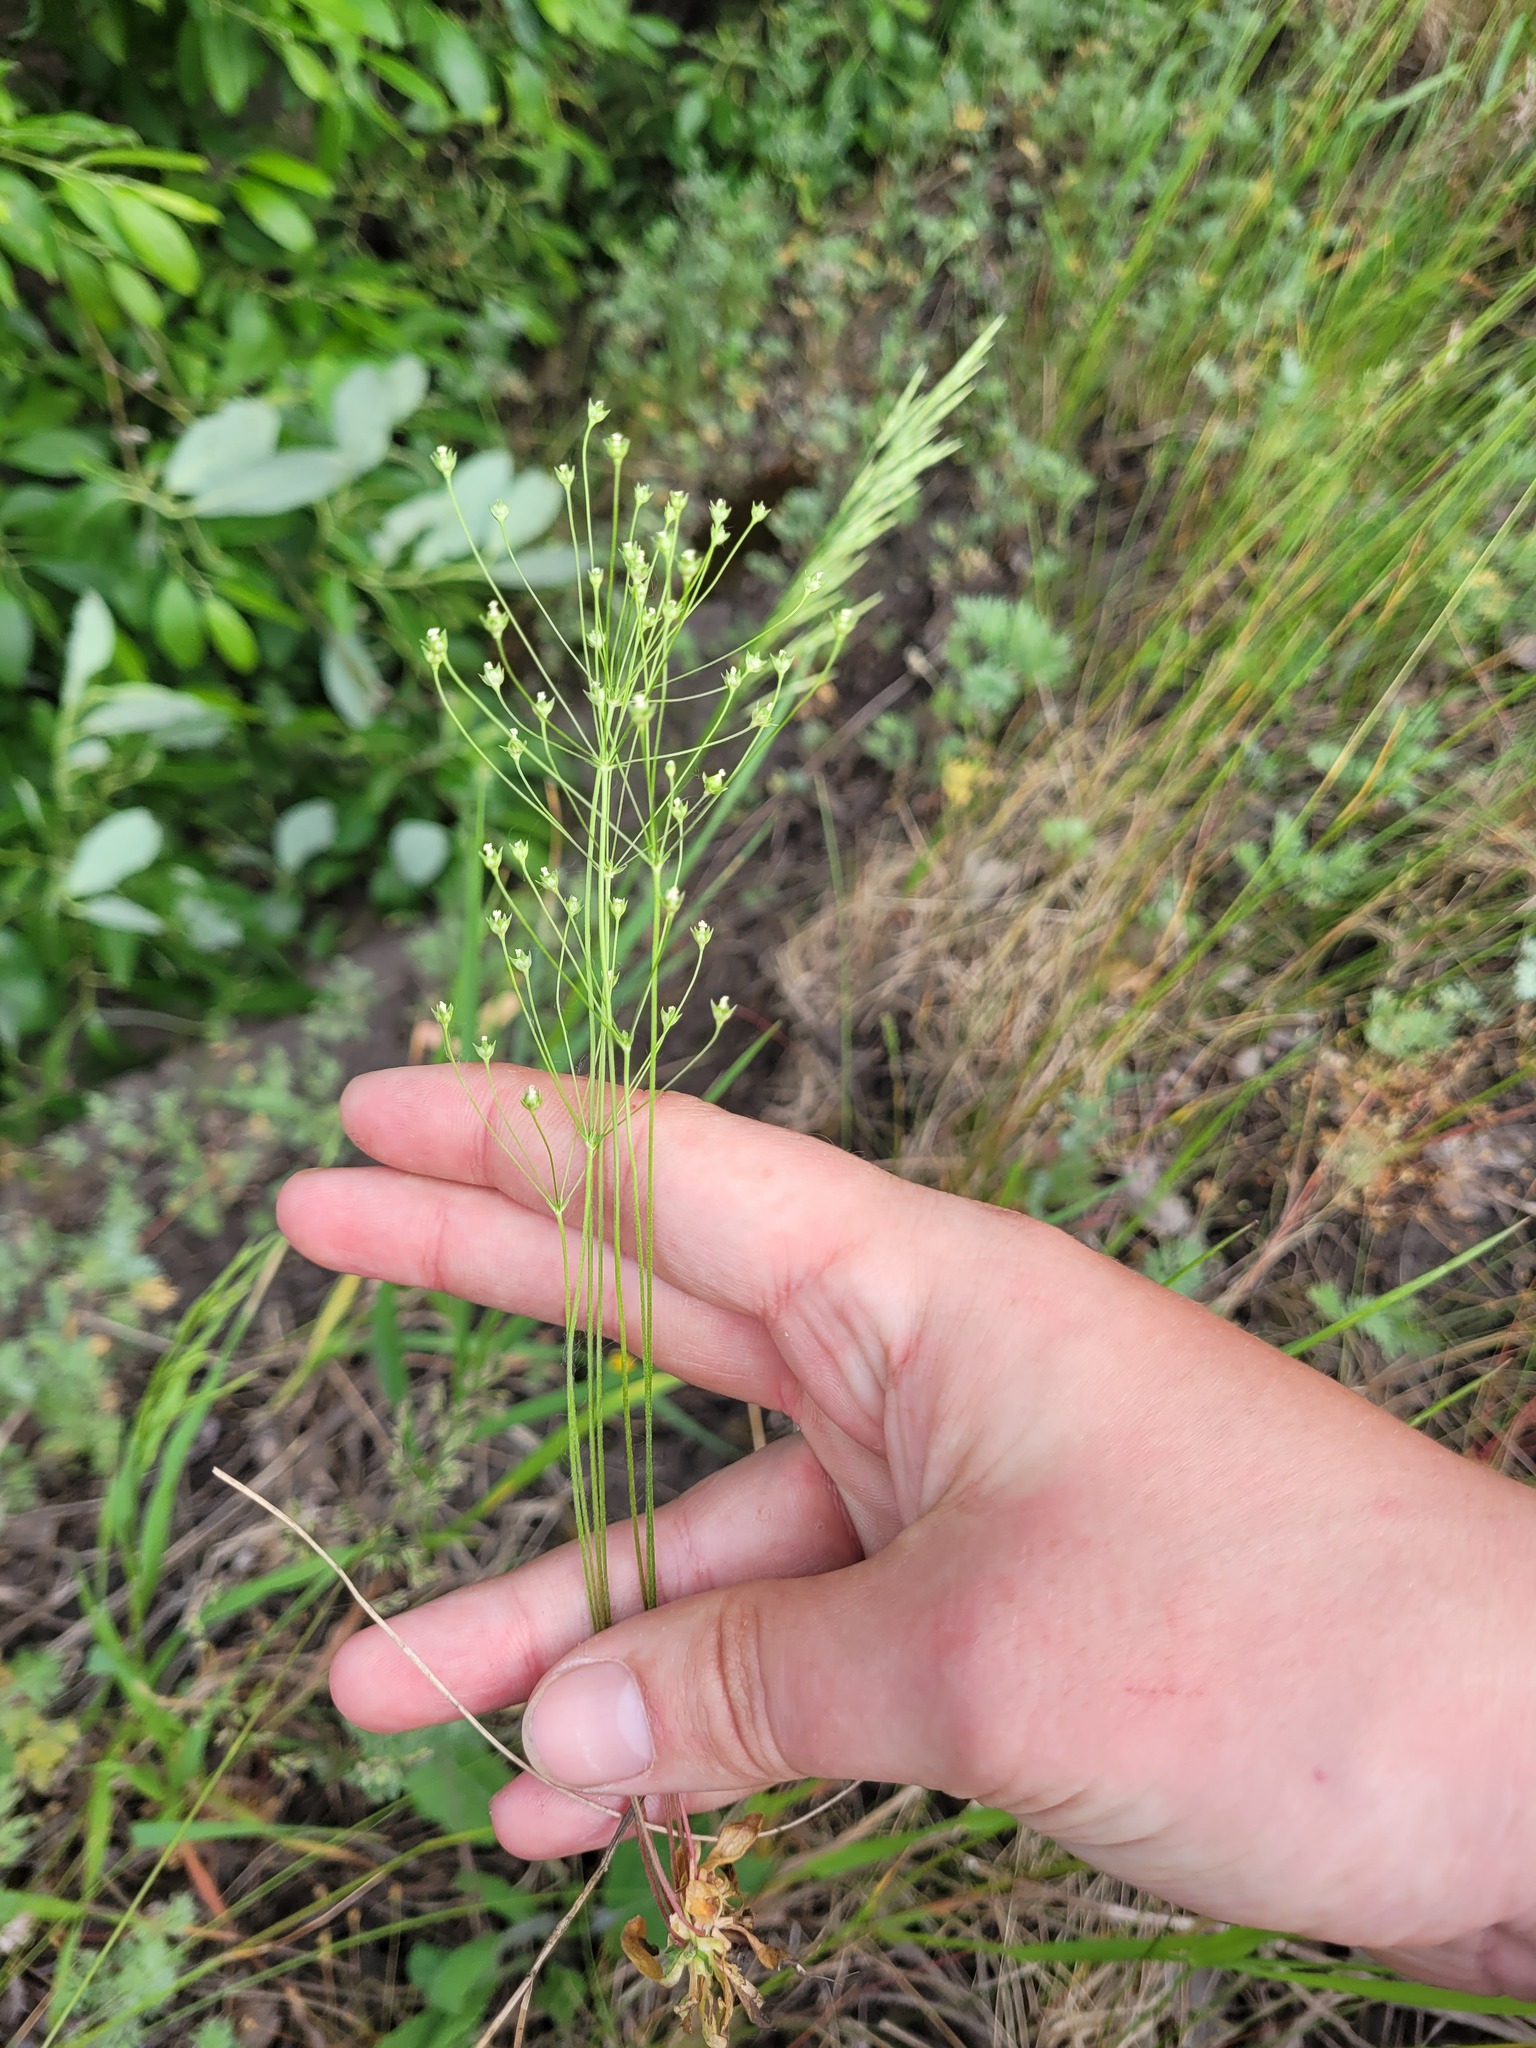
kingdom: Plantae
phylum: Tracheophyta
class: Magnoliopsida
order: Ericales
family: Primulaceae
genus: Androsace
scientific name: Androsace septentrionalis
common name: Hairy northern fairy-candelabra
